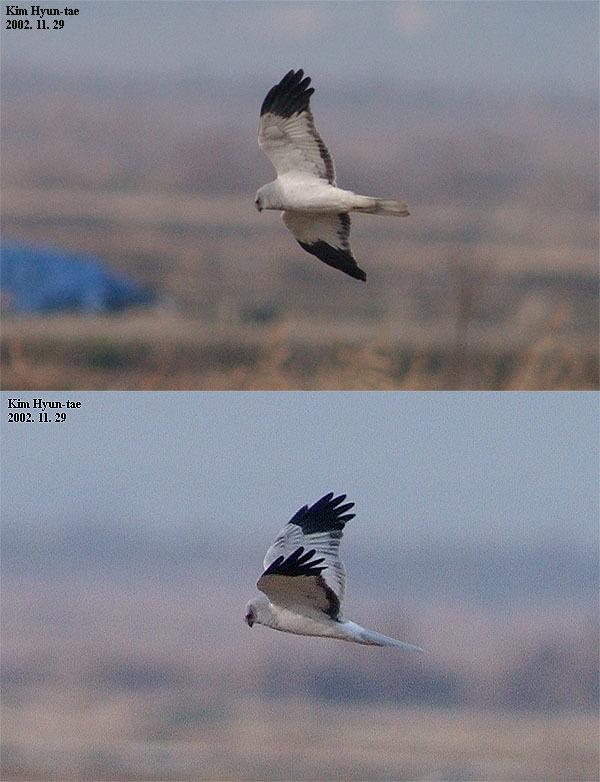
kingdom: Animalia
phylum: Chordata
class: Aves
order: Accipitriformes
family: Accipitridae
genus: Circus
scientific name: Circus cyaneus
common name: Hen harrier
